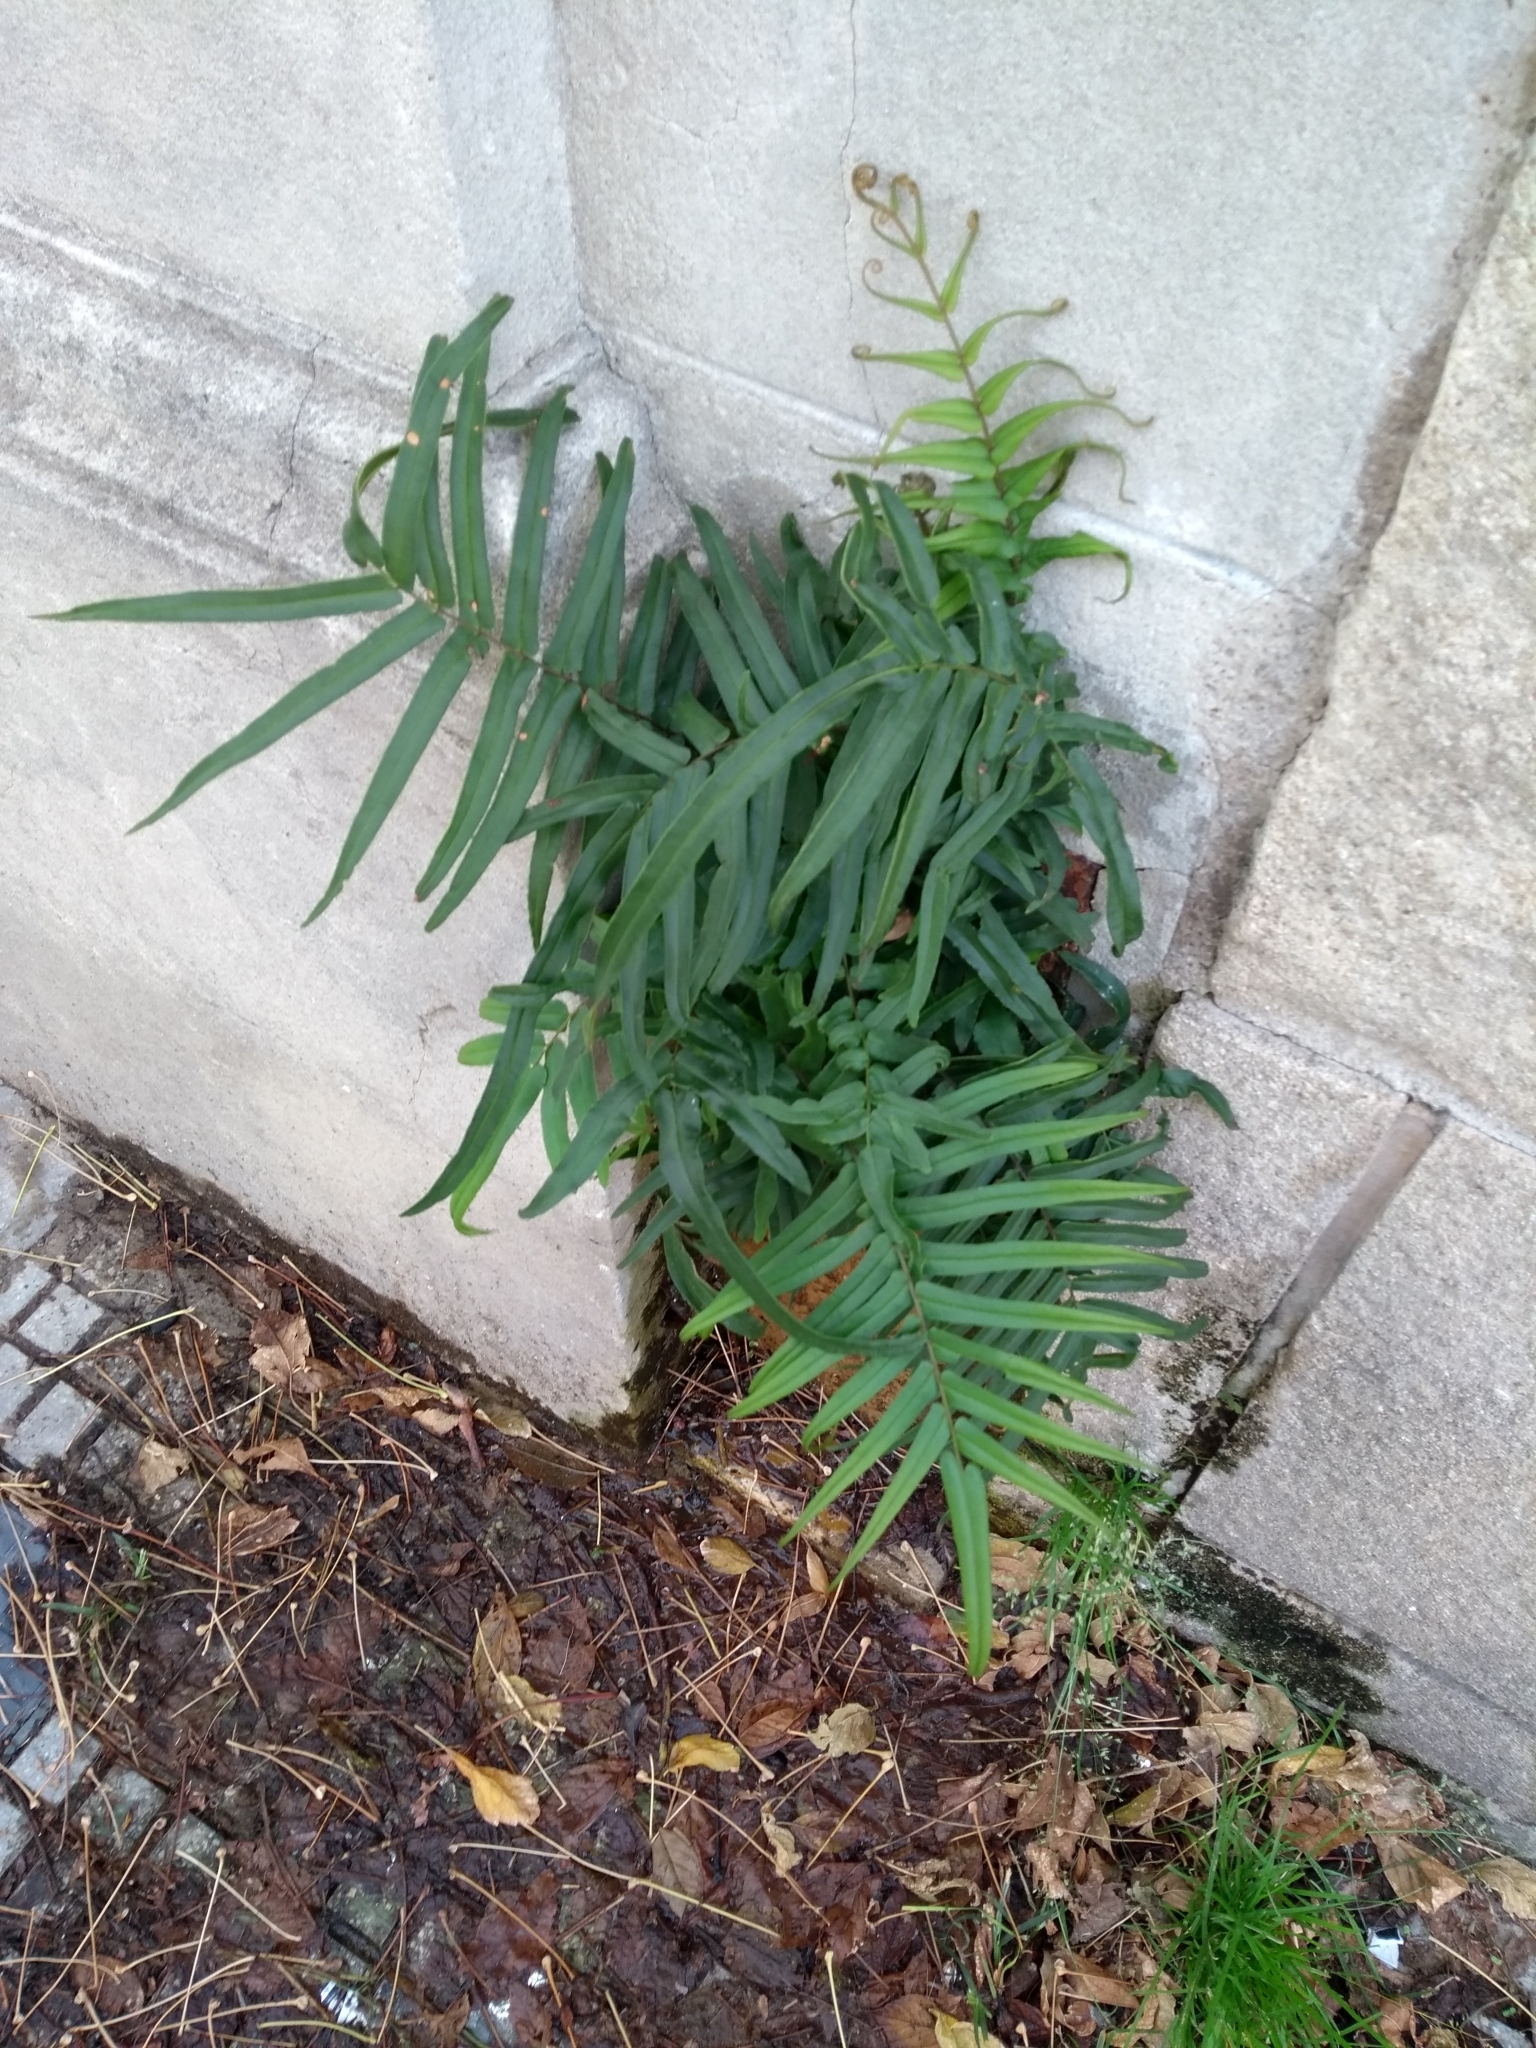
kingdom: Plantae
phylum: Tracheophyta
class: Polypodiopsida
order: Polypodiales
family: Pteridaceae
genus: Pteris
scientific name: Pteris vittata
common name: Ladder brake
